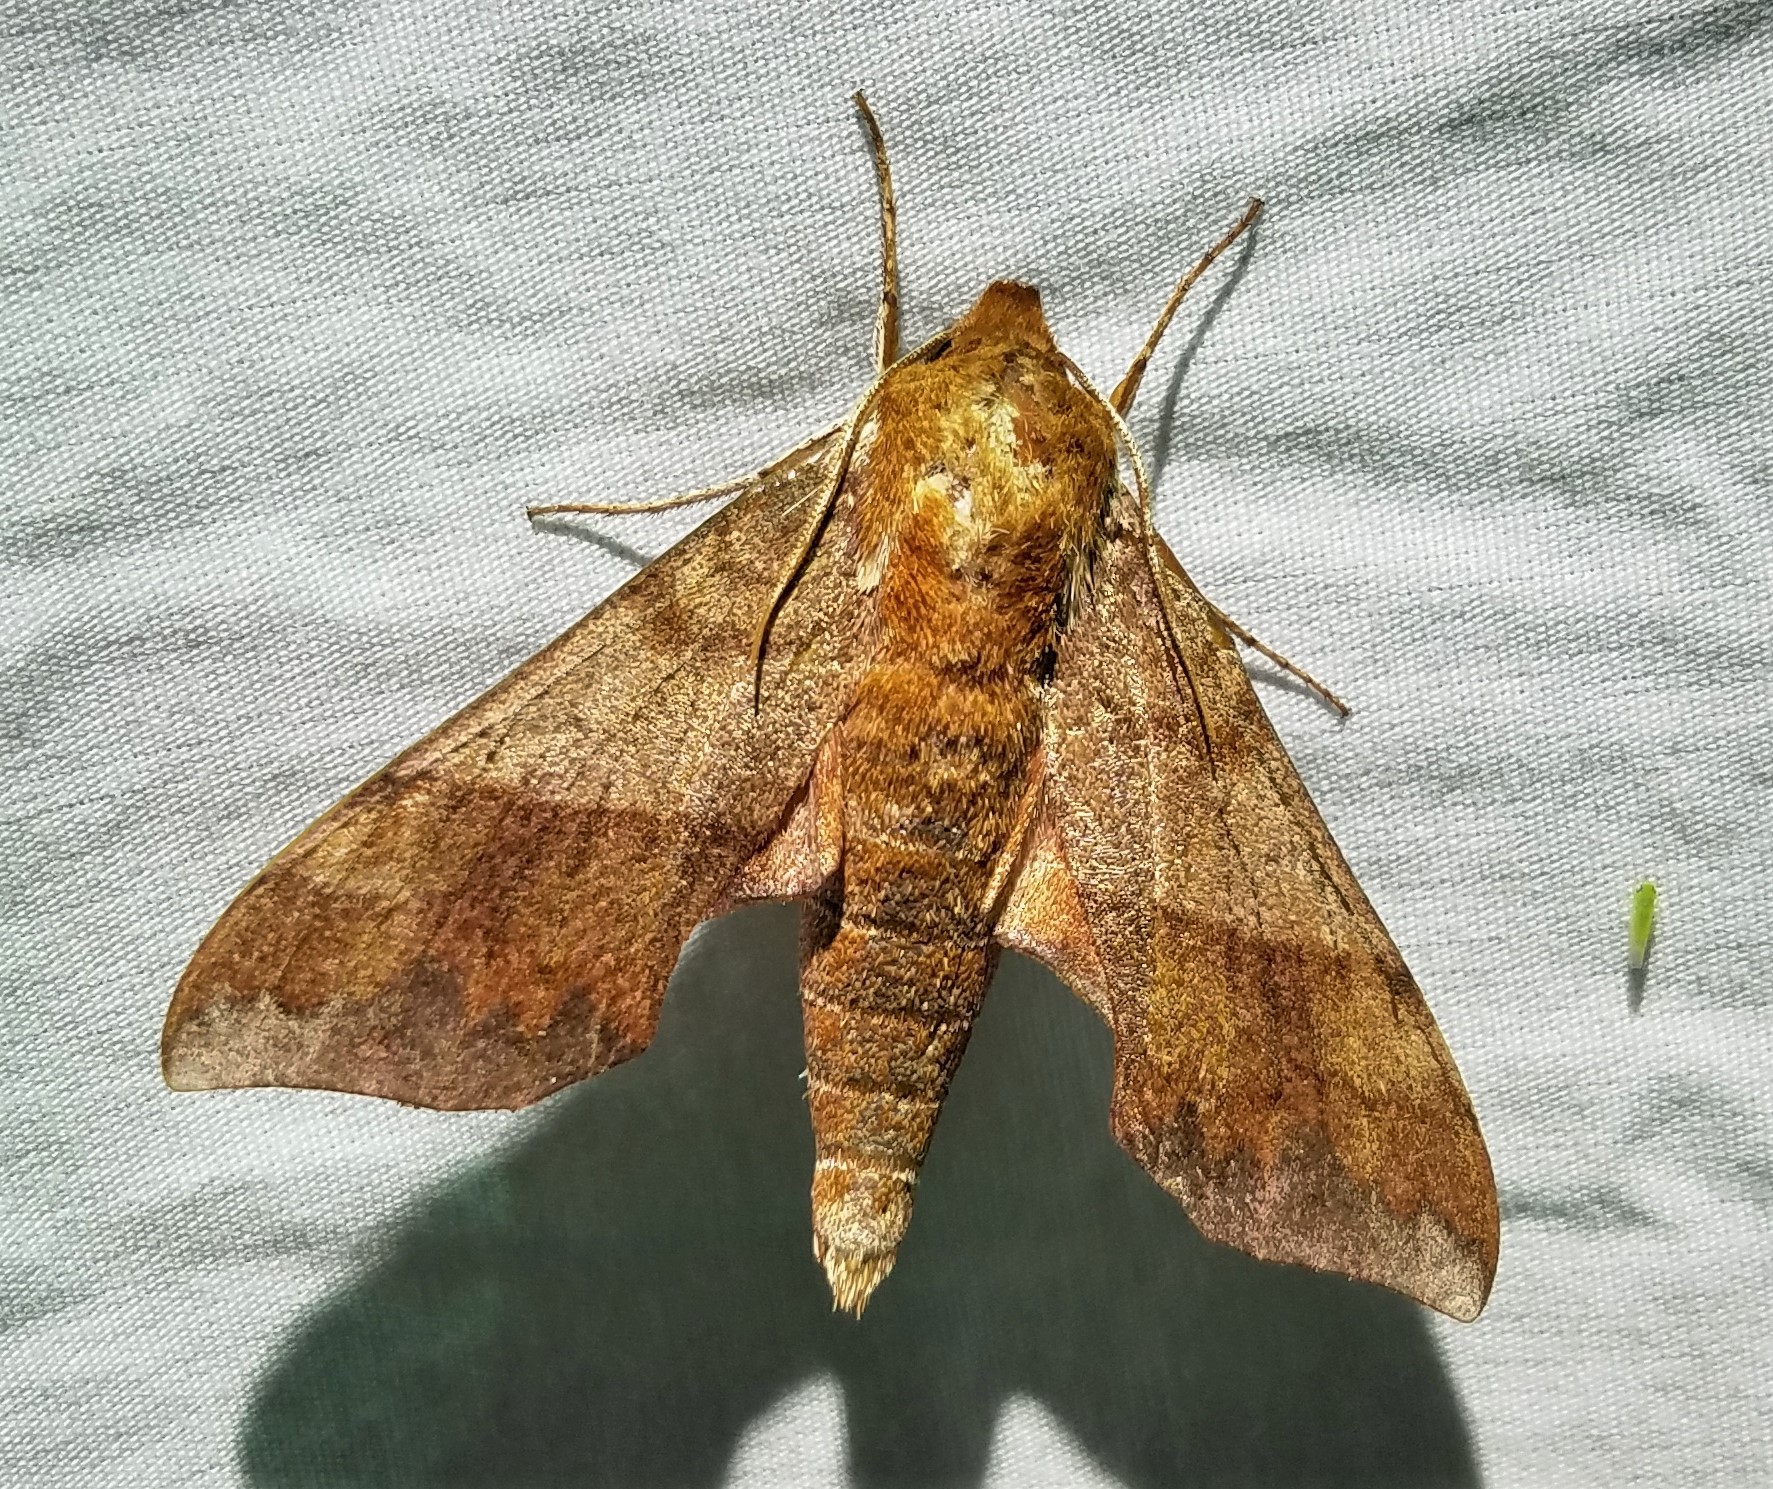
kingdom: Animalia
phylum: Arthropoda
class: Insecta
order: Lepidoptera
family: Sphingidae
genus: Darapsa
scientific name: Darapsa choerilus
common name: Azalea sphinx
